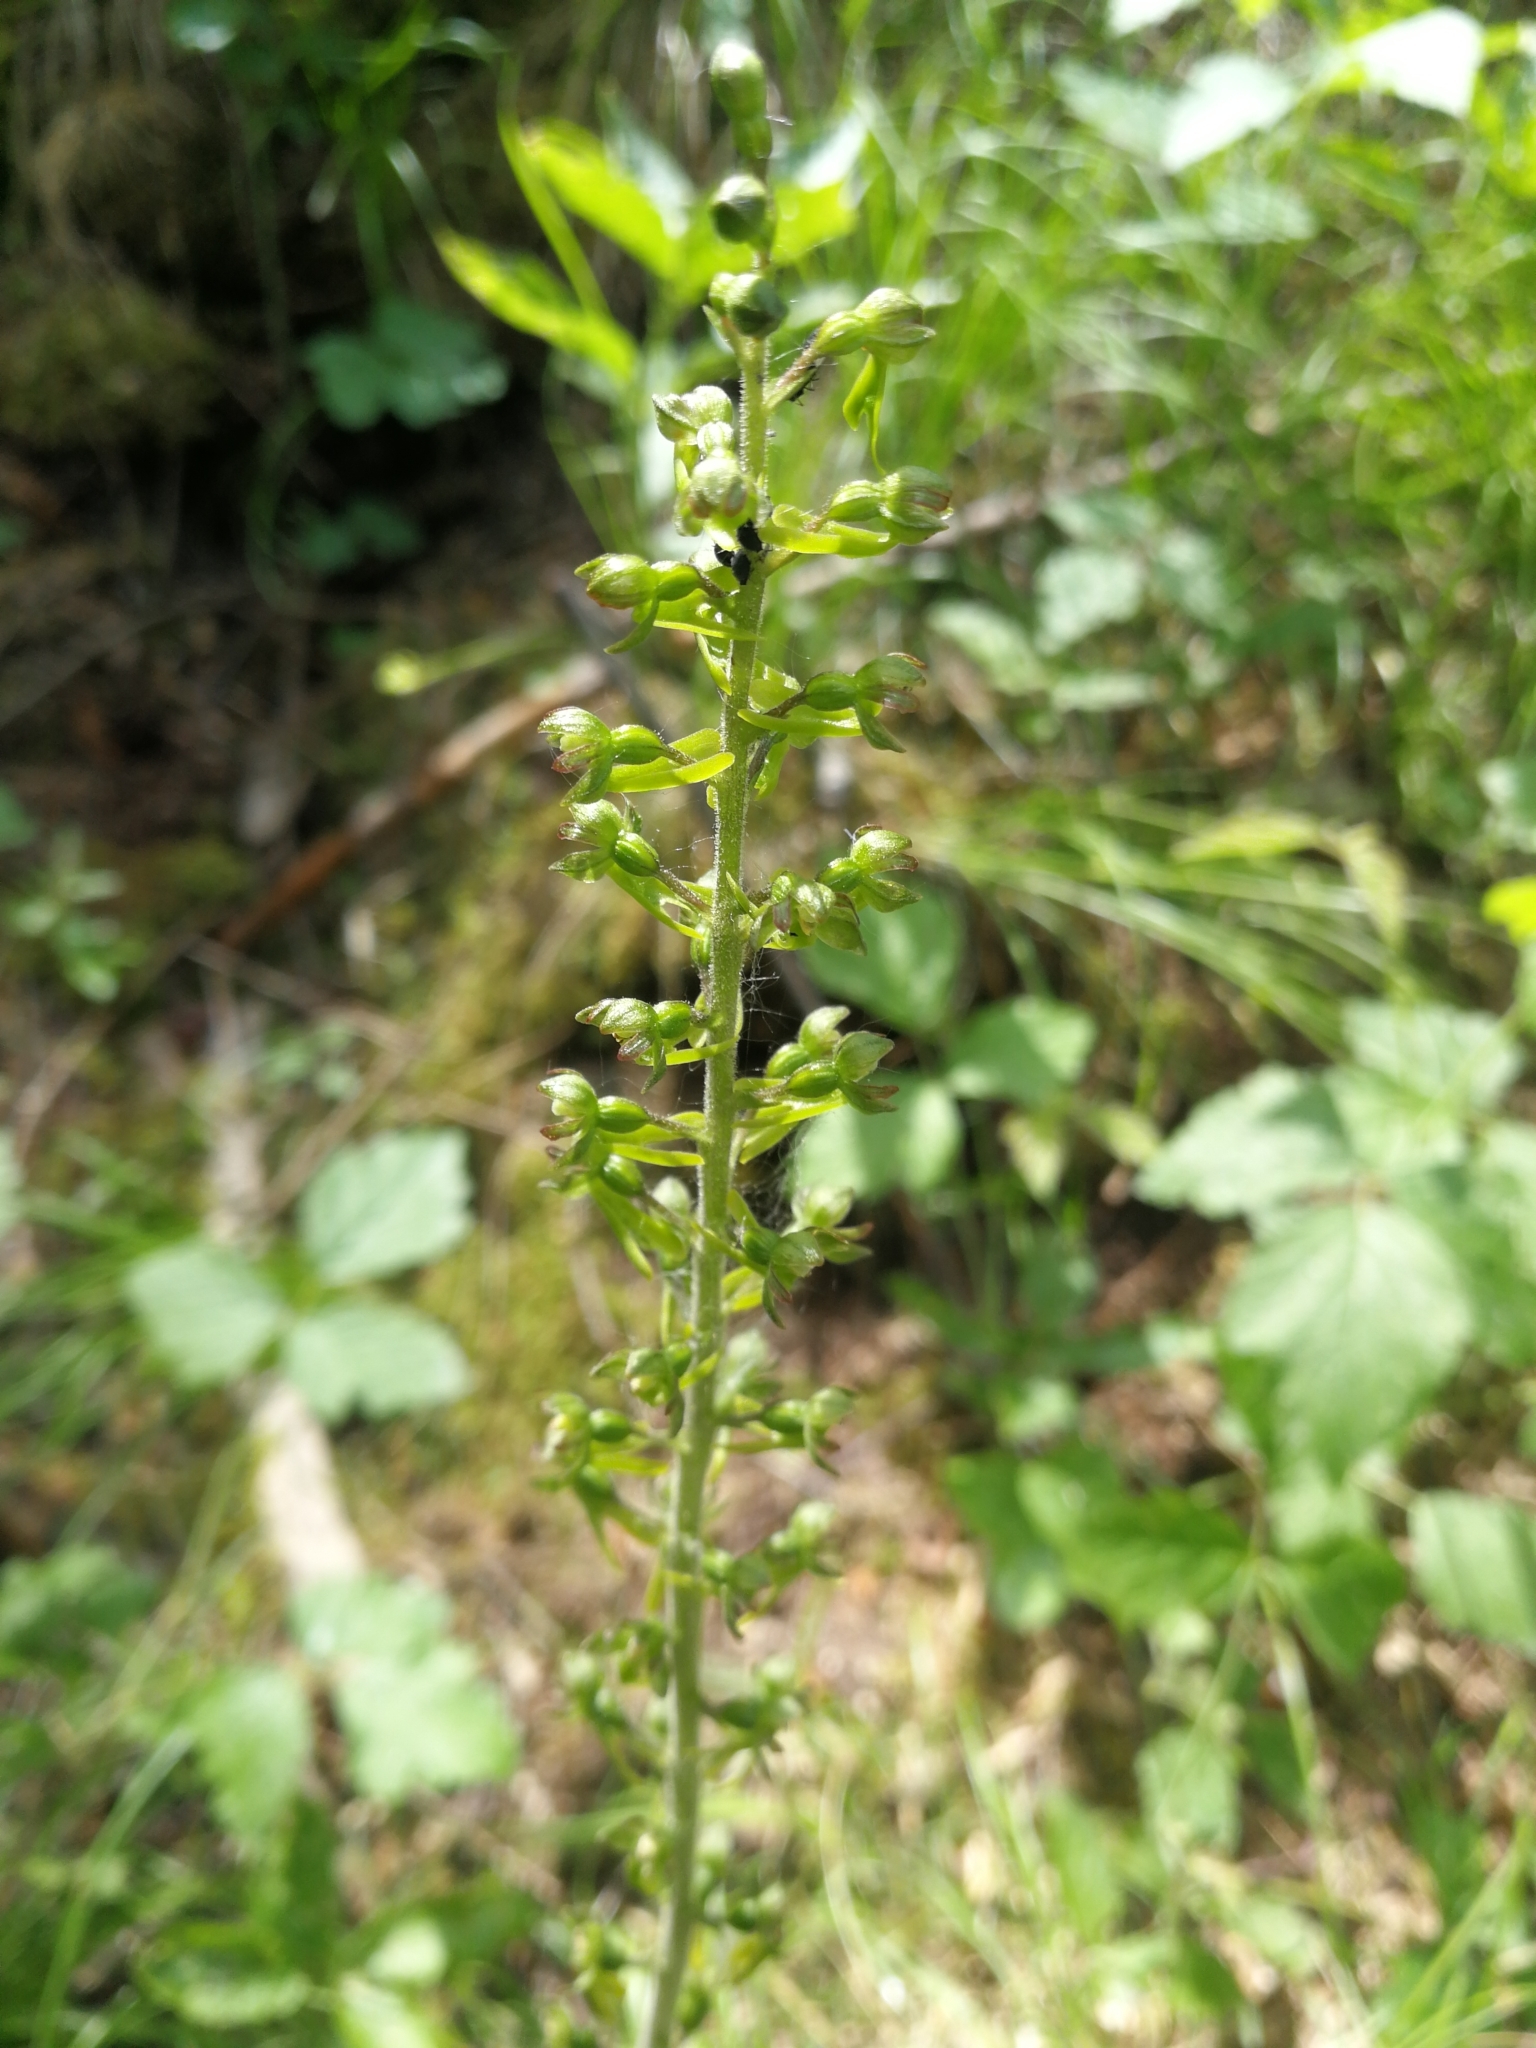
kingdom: Plantae
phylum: Tracheophyta
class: Liliopsida
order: Asparagales
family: Orchidaceae
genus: Neottia
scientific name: Neottia ovata
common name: Common twayblade
